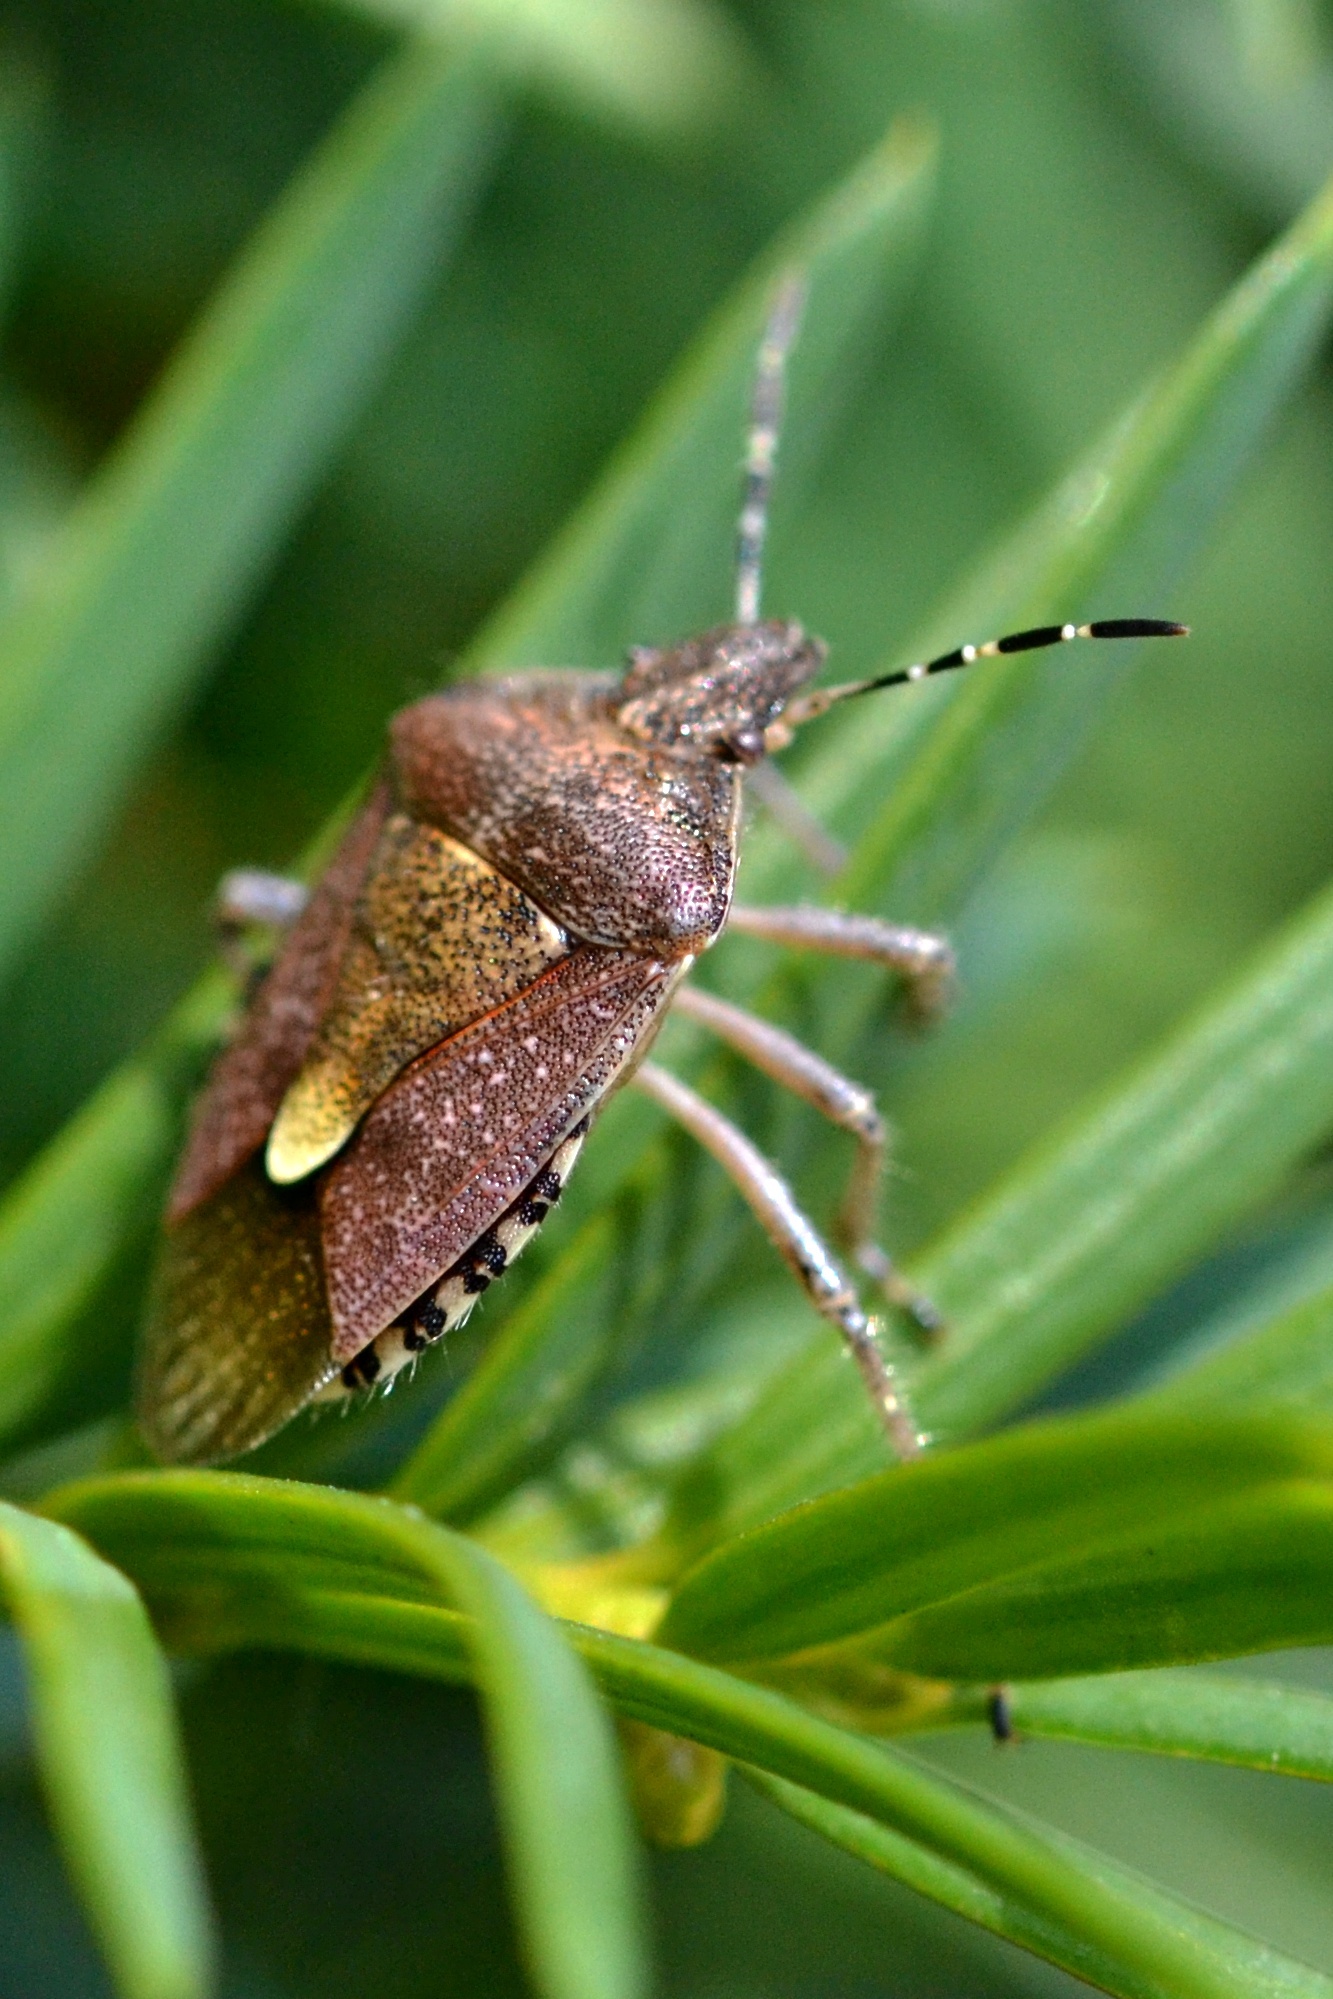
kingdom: Animalia
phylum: Arthropoda
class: Insecta
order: Hemiptera
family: Pentatomidae
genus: Dolycoris
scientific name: Dolycoris baccarum
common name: Sloe bug
